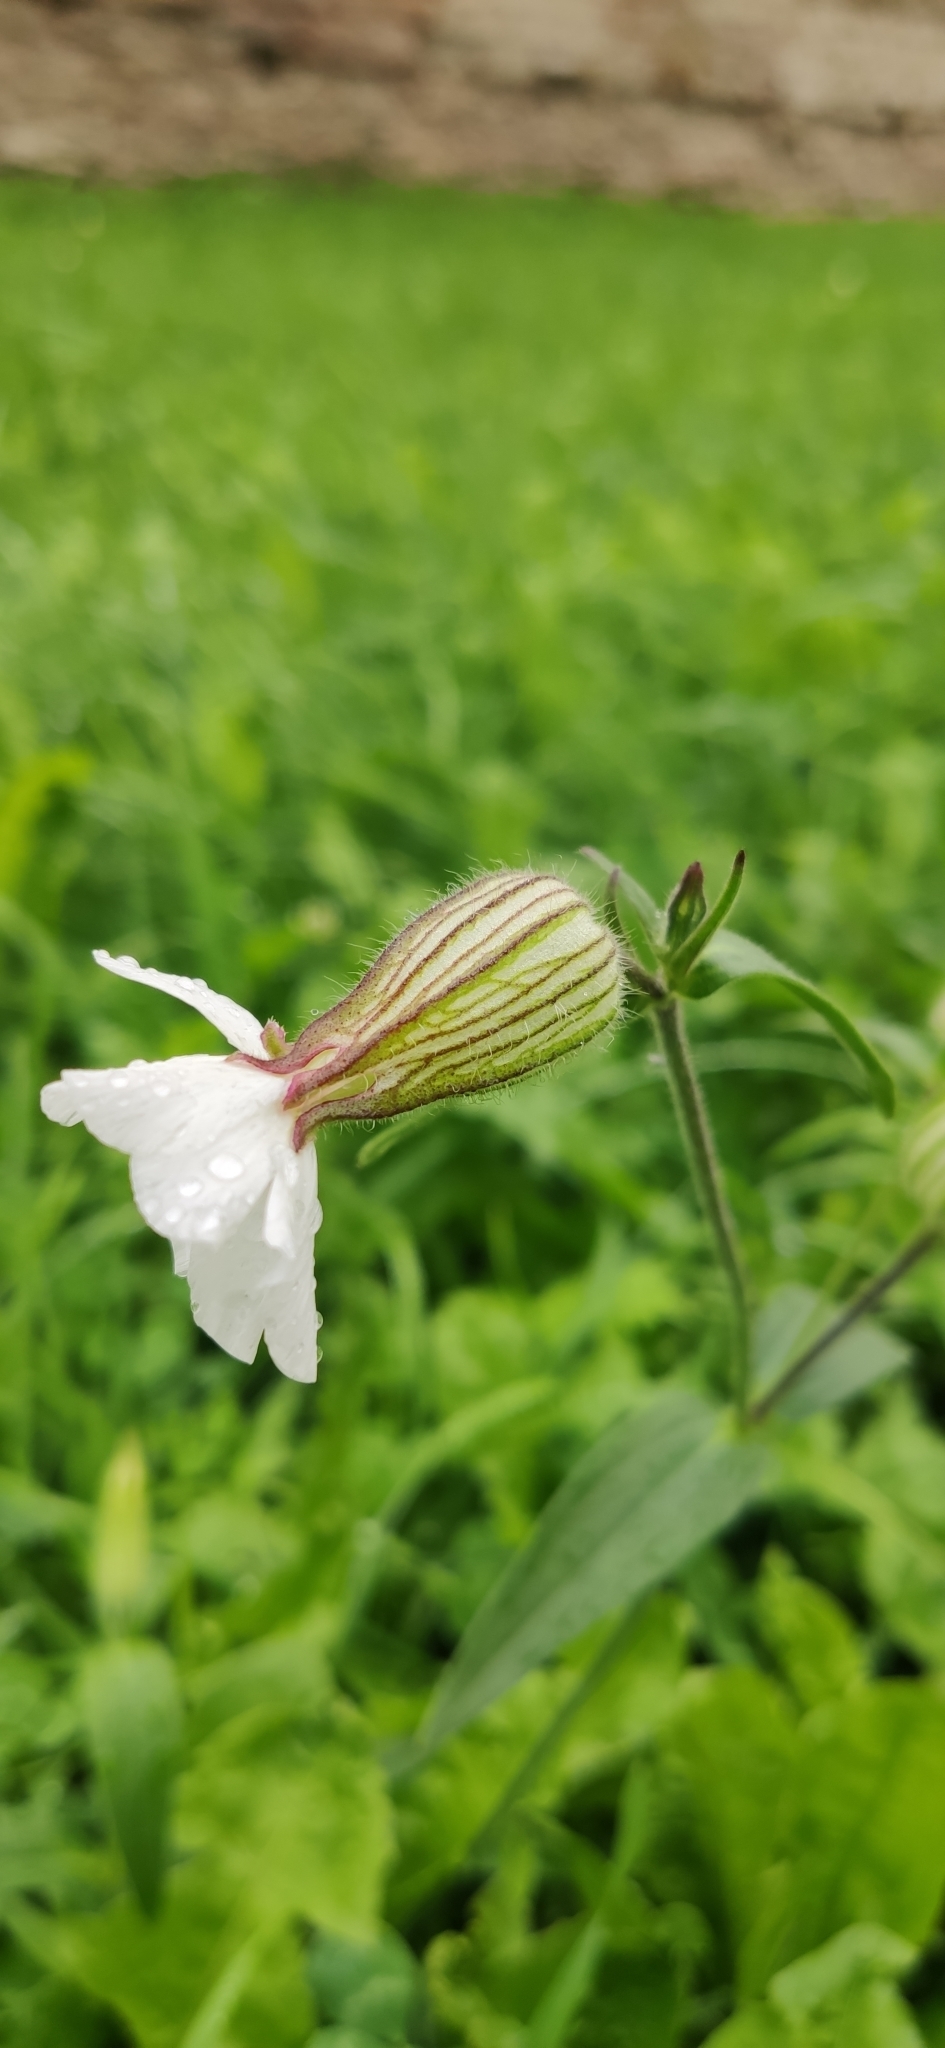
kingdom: Plantae
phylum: Tracheophyta
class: Magnoliopsida
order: Caryophyllales
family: Caryophyllaceae
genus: Silene
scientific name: Silene latifolia
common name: White campion
